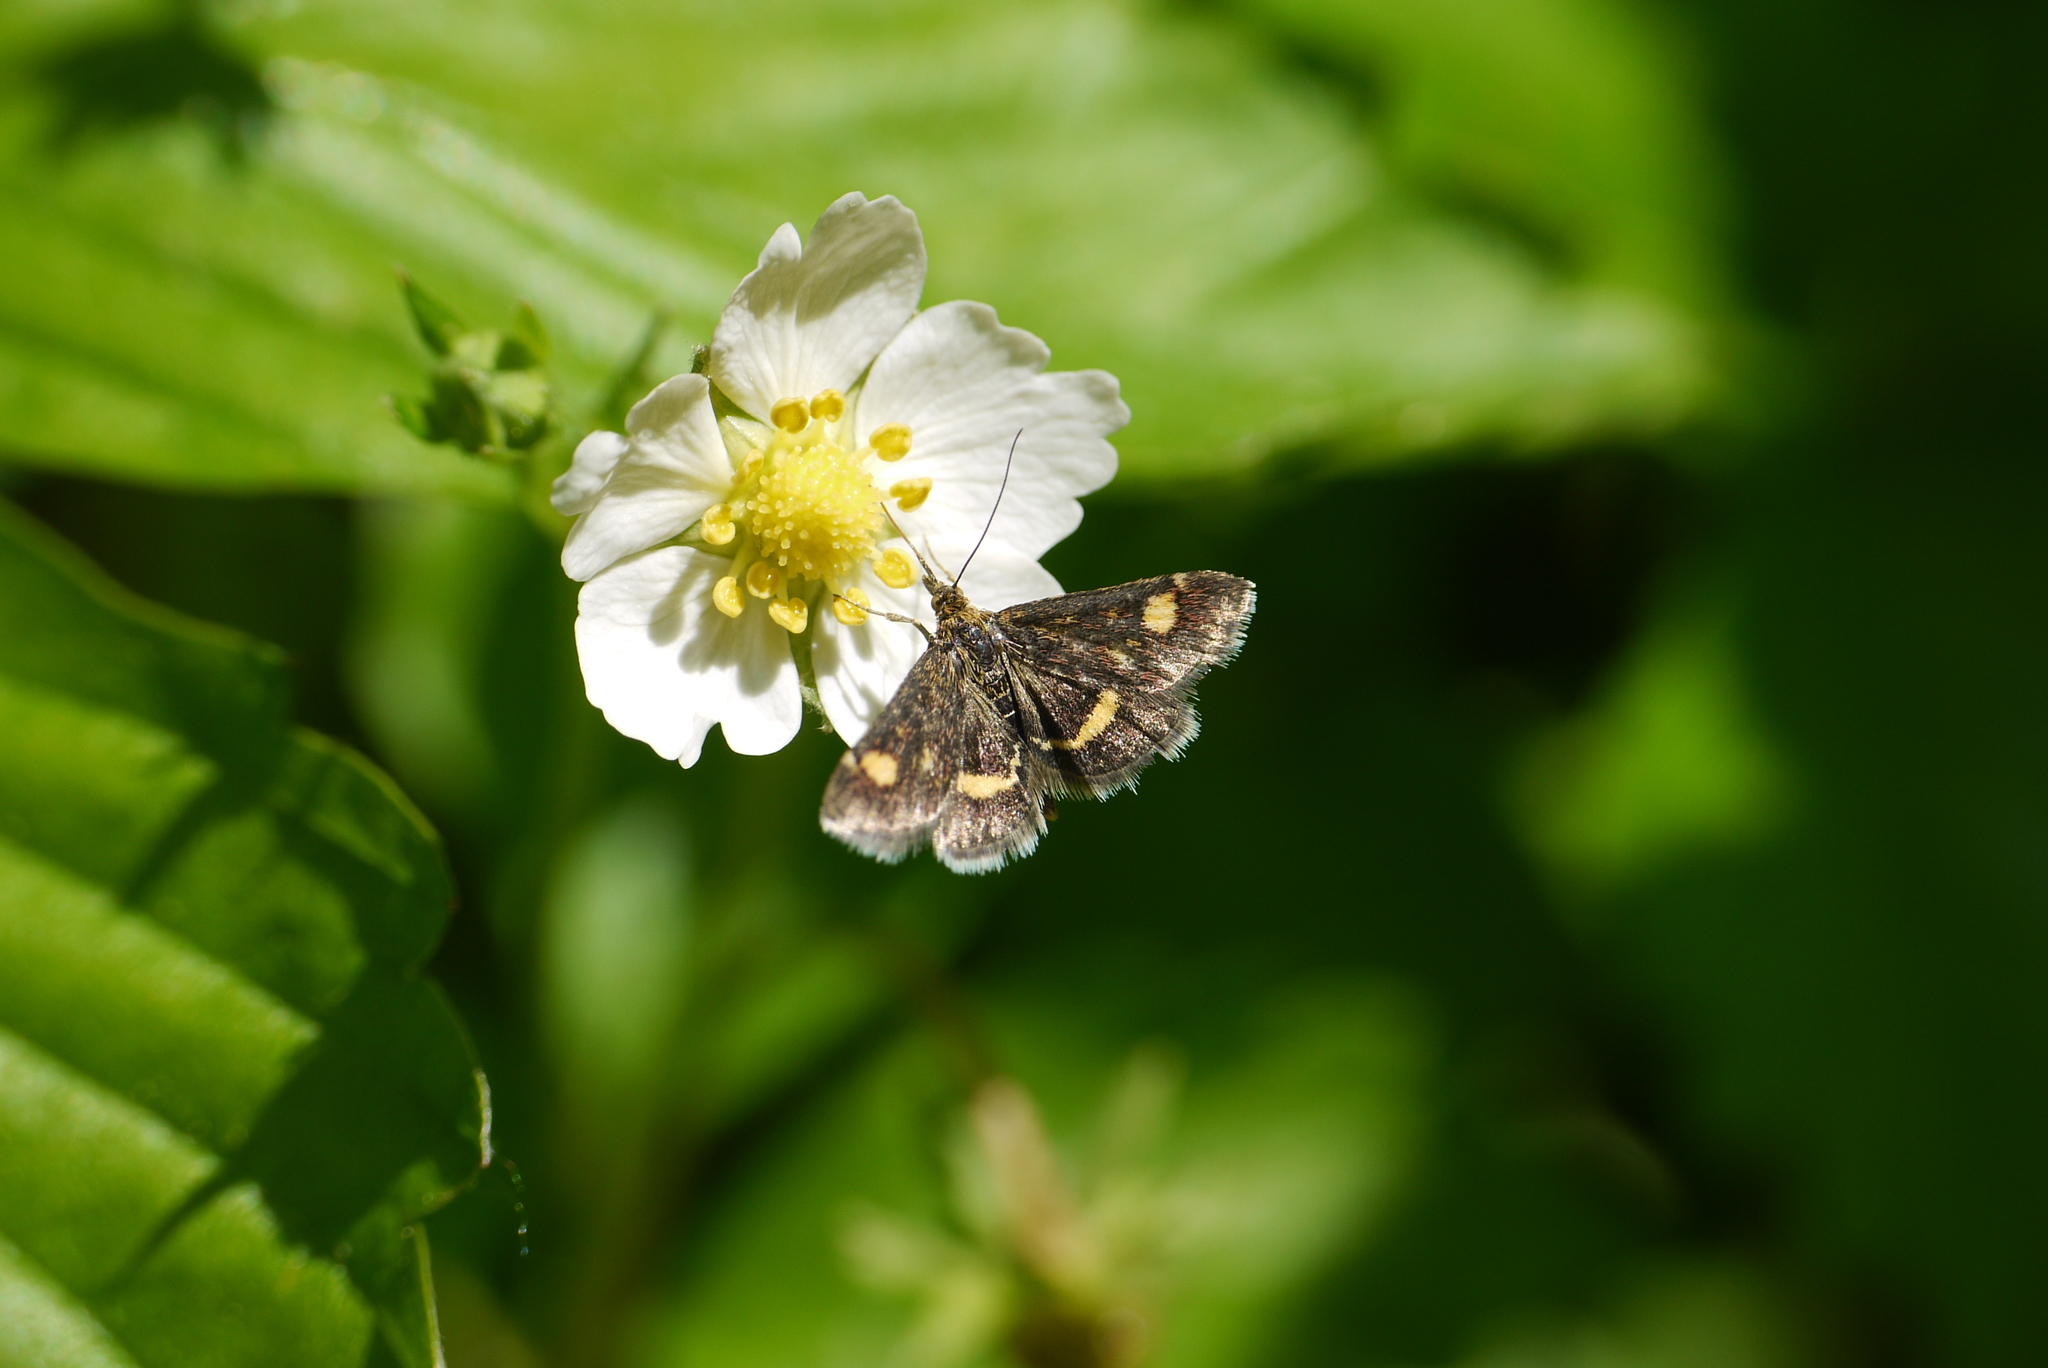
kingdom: Animalia
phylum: Arthropoda
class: Insecta
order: Lepidoptera
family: Crambidae
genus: Pyrausta
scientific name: Pyrausta aurata
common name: Small purple & gold
